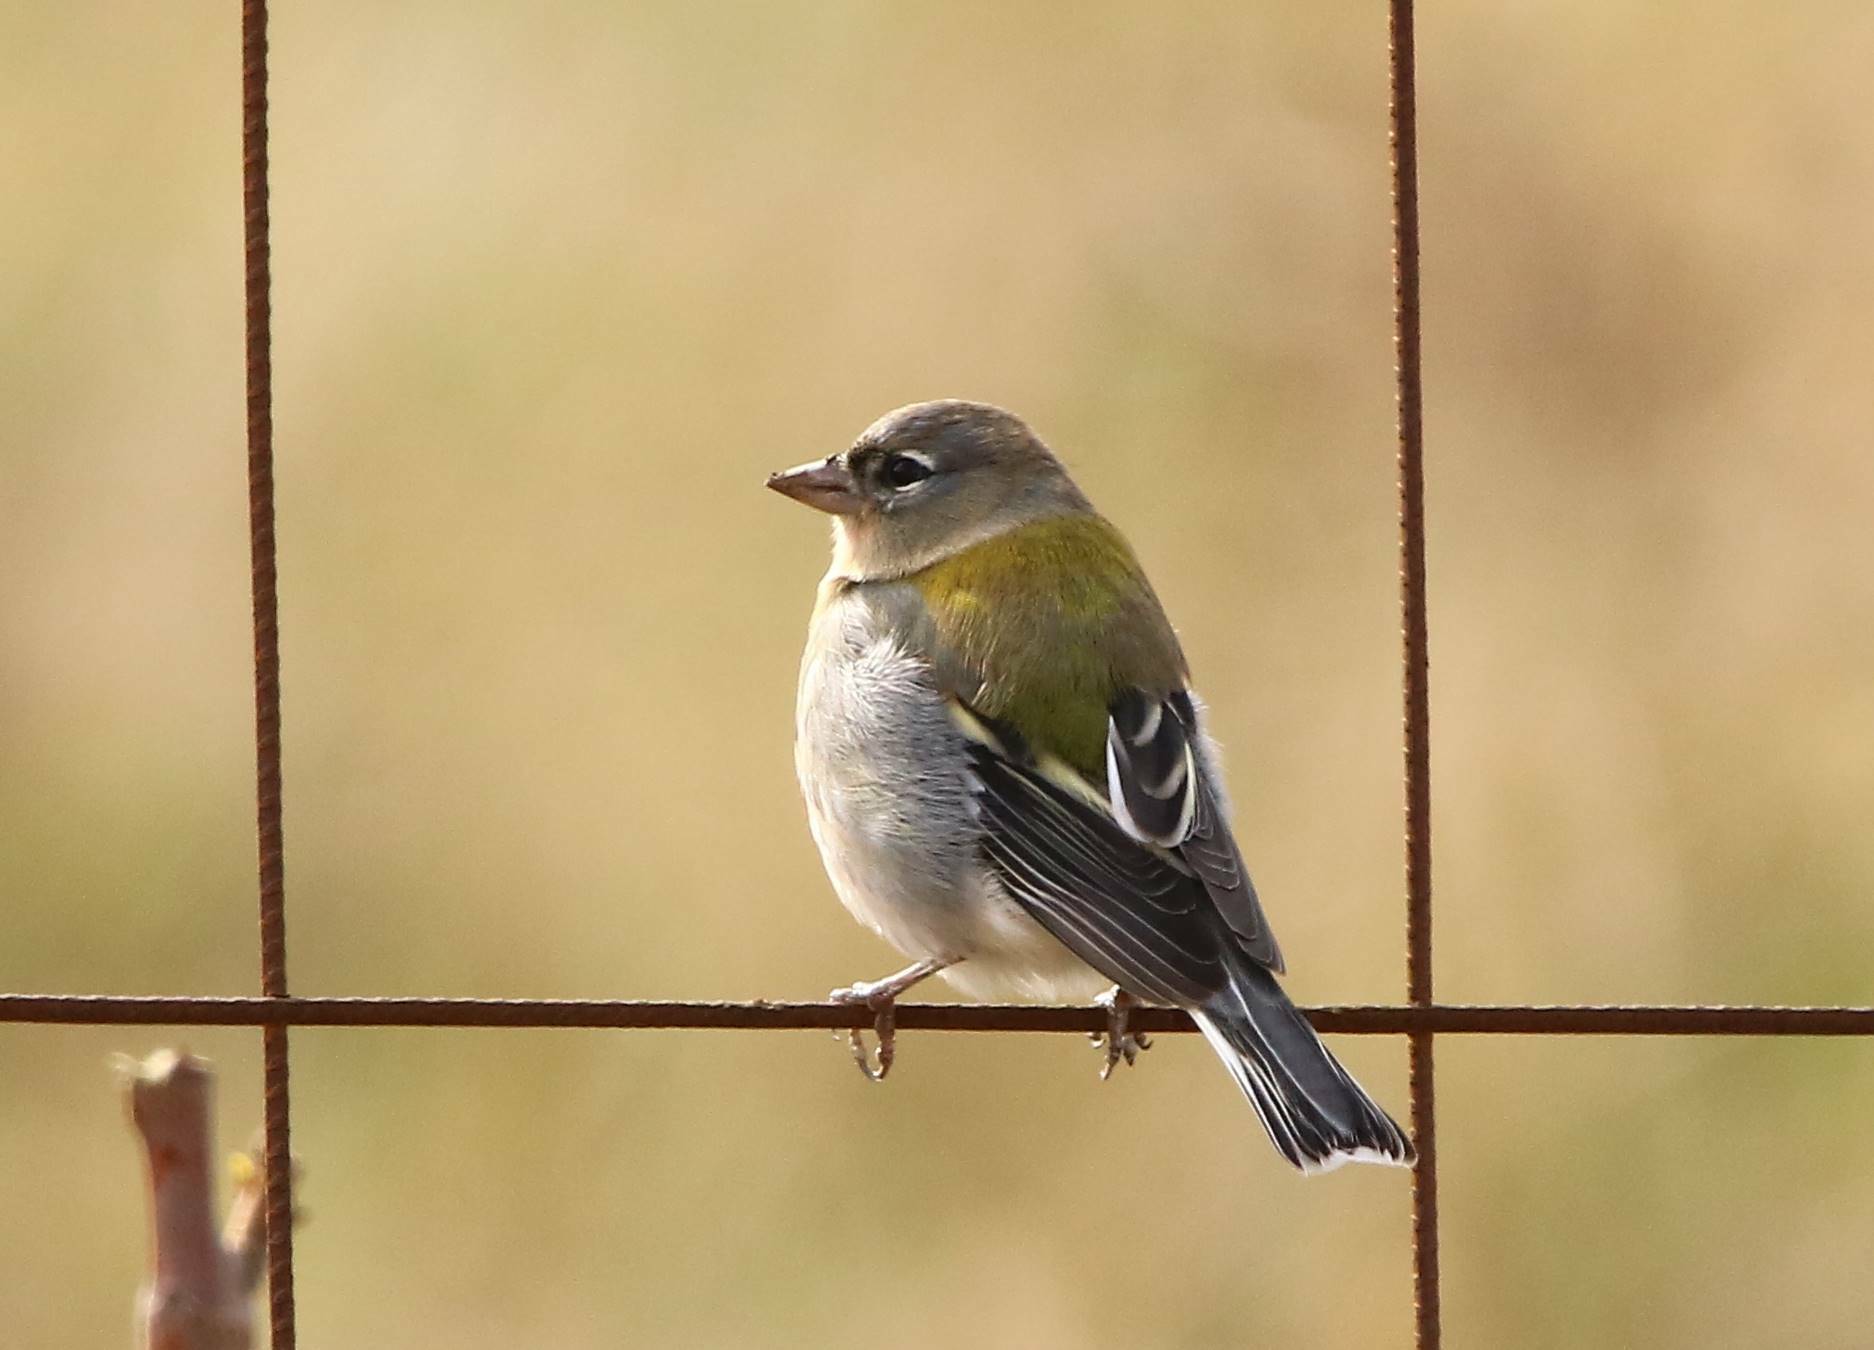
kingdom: Animalia
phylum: Chordata
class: Aves
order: Passeriformes
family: Fringillidae
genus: Fringilla
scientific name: Fringilla spodiogenys
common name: African chaffinch
